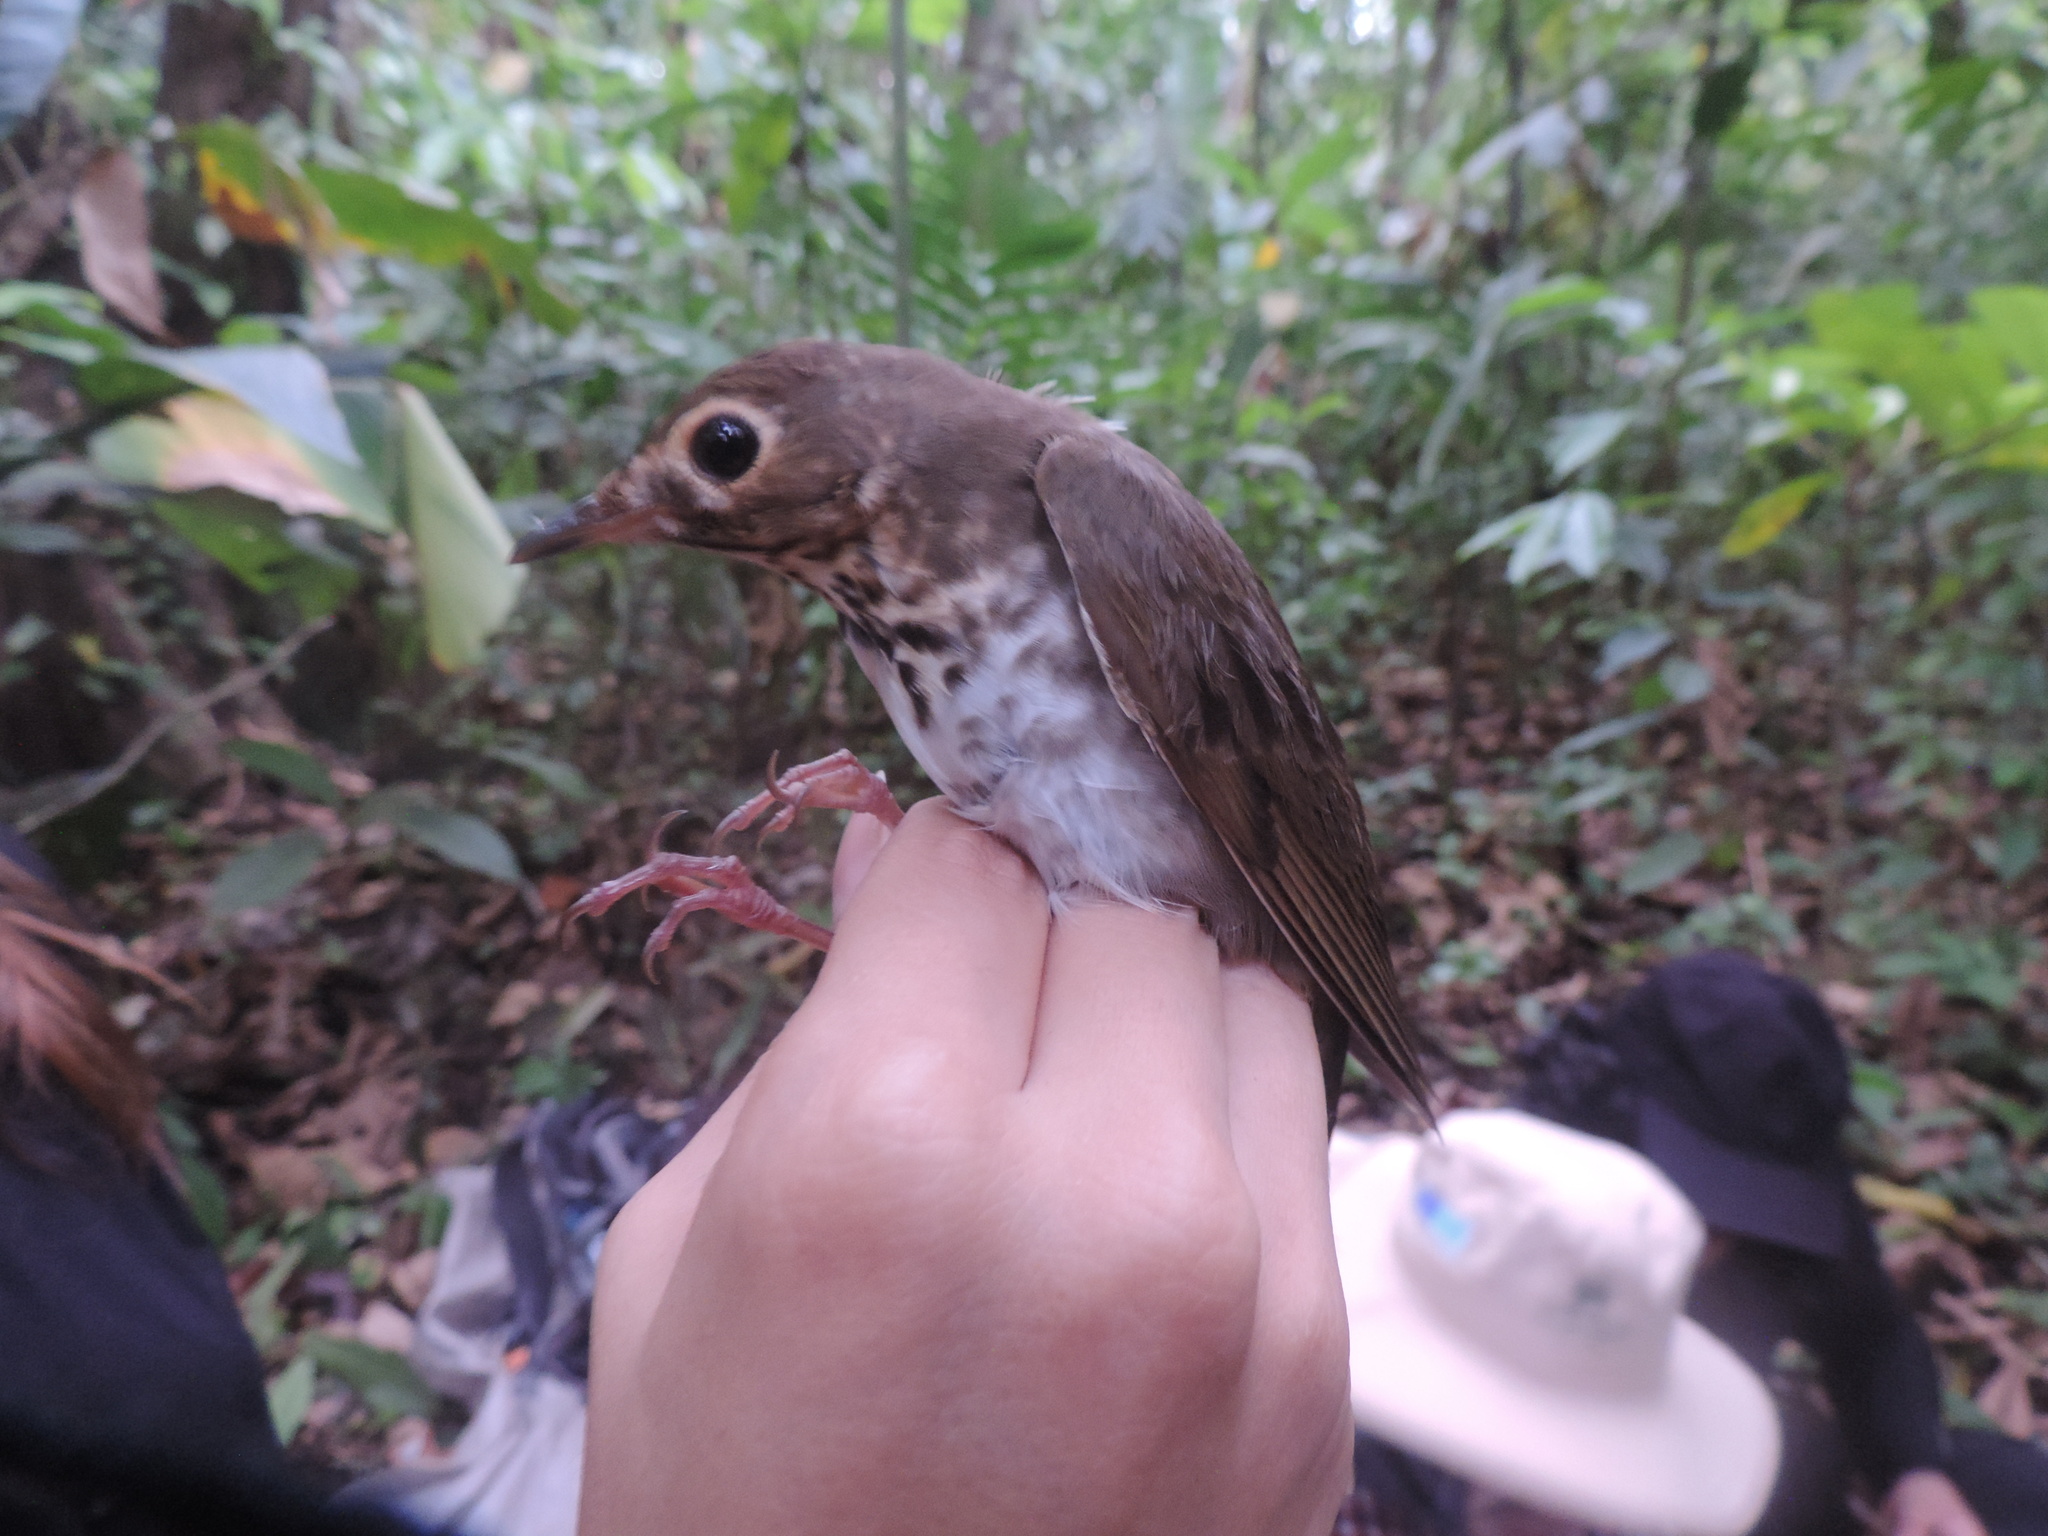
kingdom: Animalia
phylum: Chordata
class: Aves
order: Passeriformes
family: Turdidae
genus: Catharus
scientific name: Catharus ustulatus
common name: Swainson's thrush
